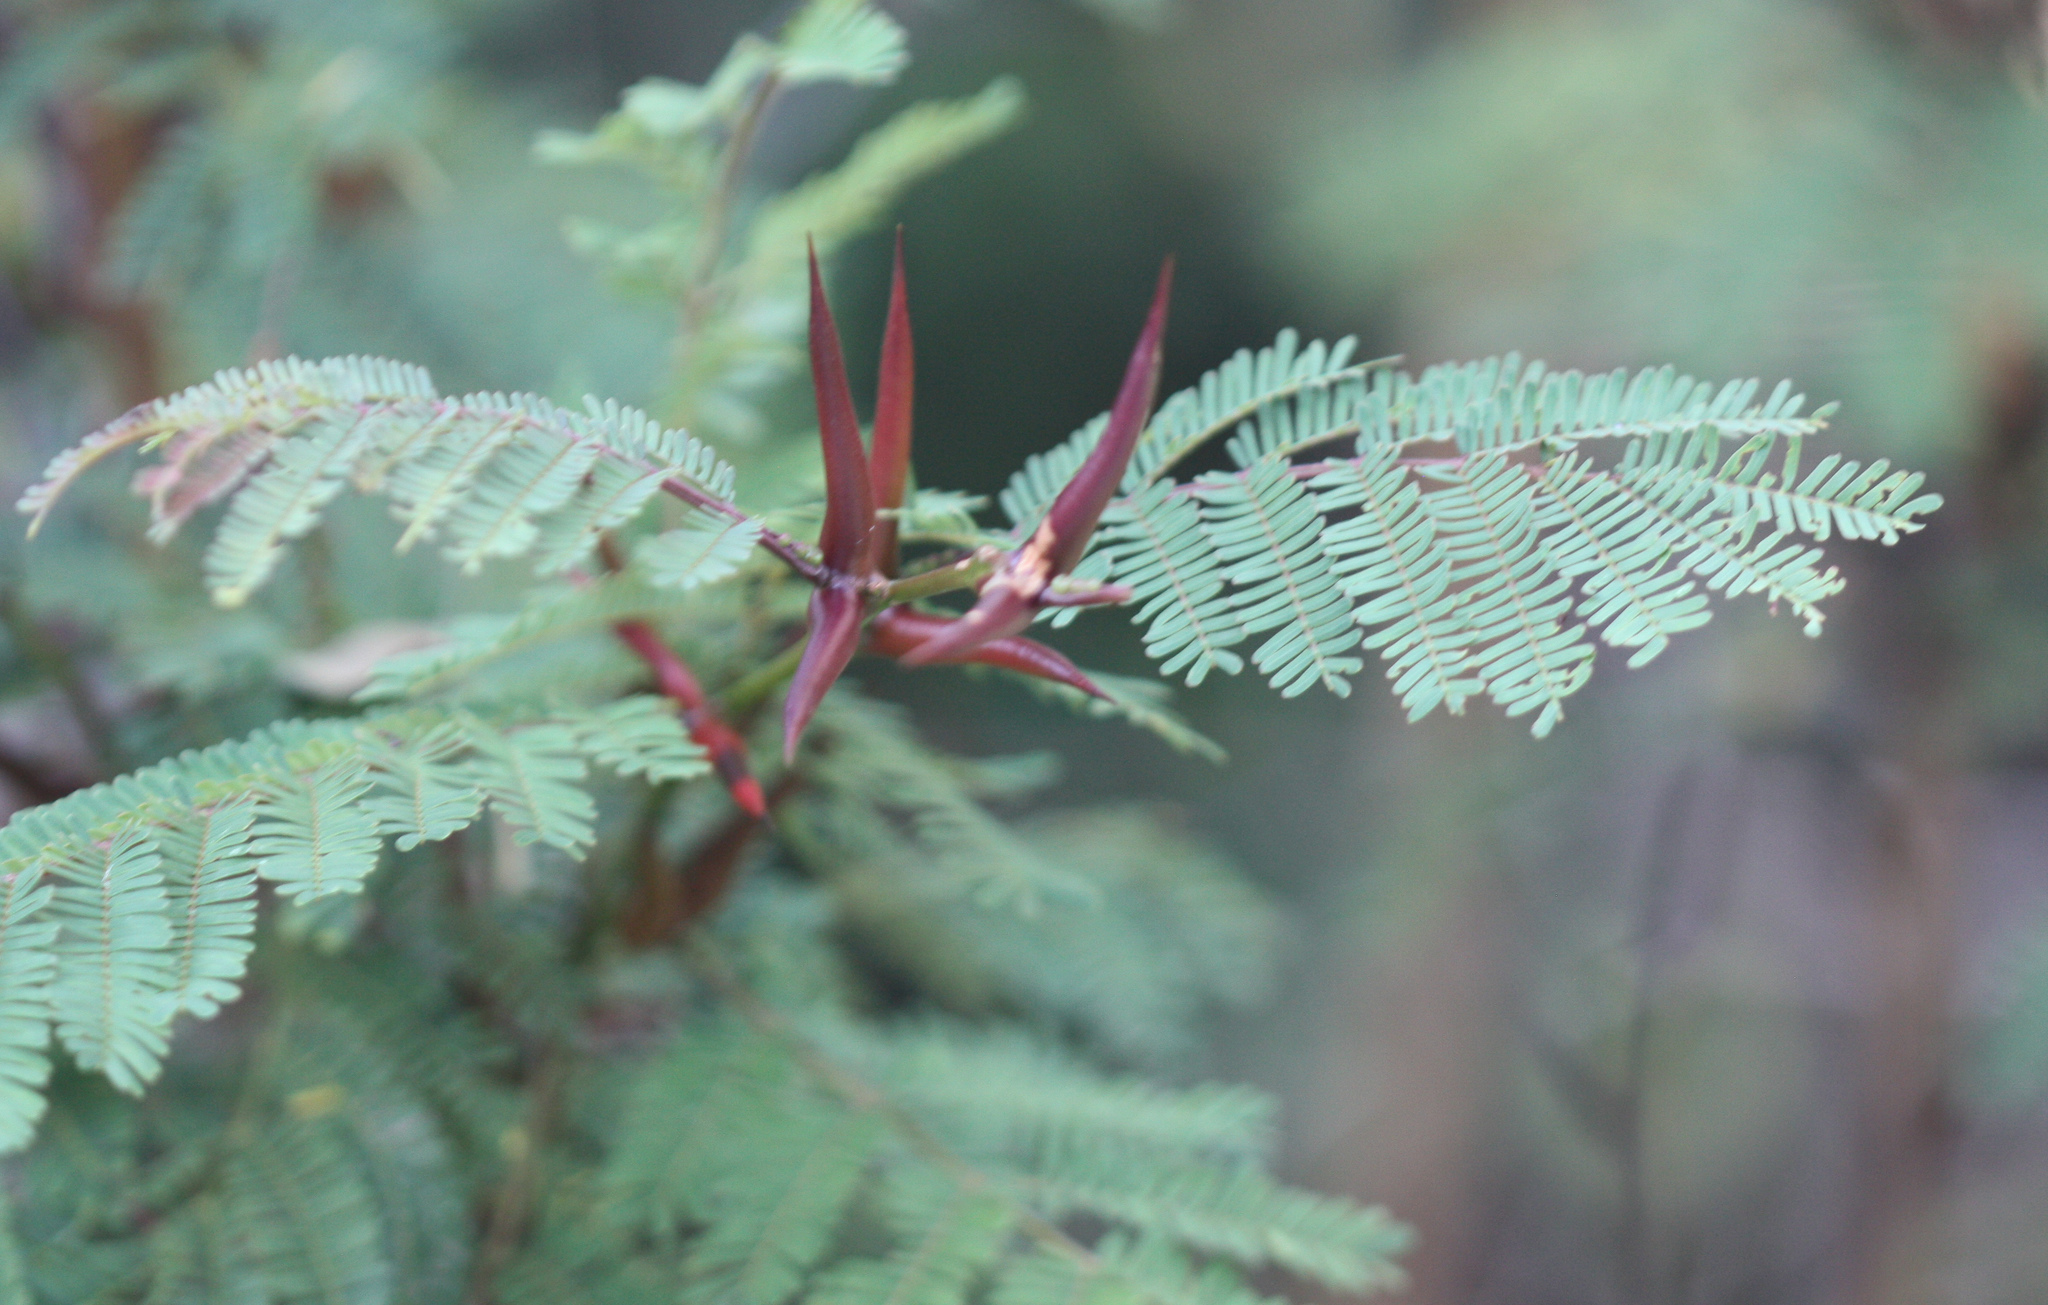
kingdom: Plantae
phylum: Tracheophyta
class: Magnoliopsida
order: Fabales
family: Fabaceae
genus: Vachellia
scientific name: Vachellia cornigera
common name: Bullhorn wattle
